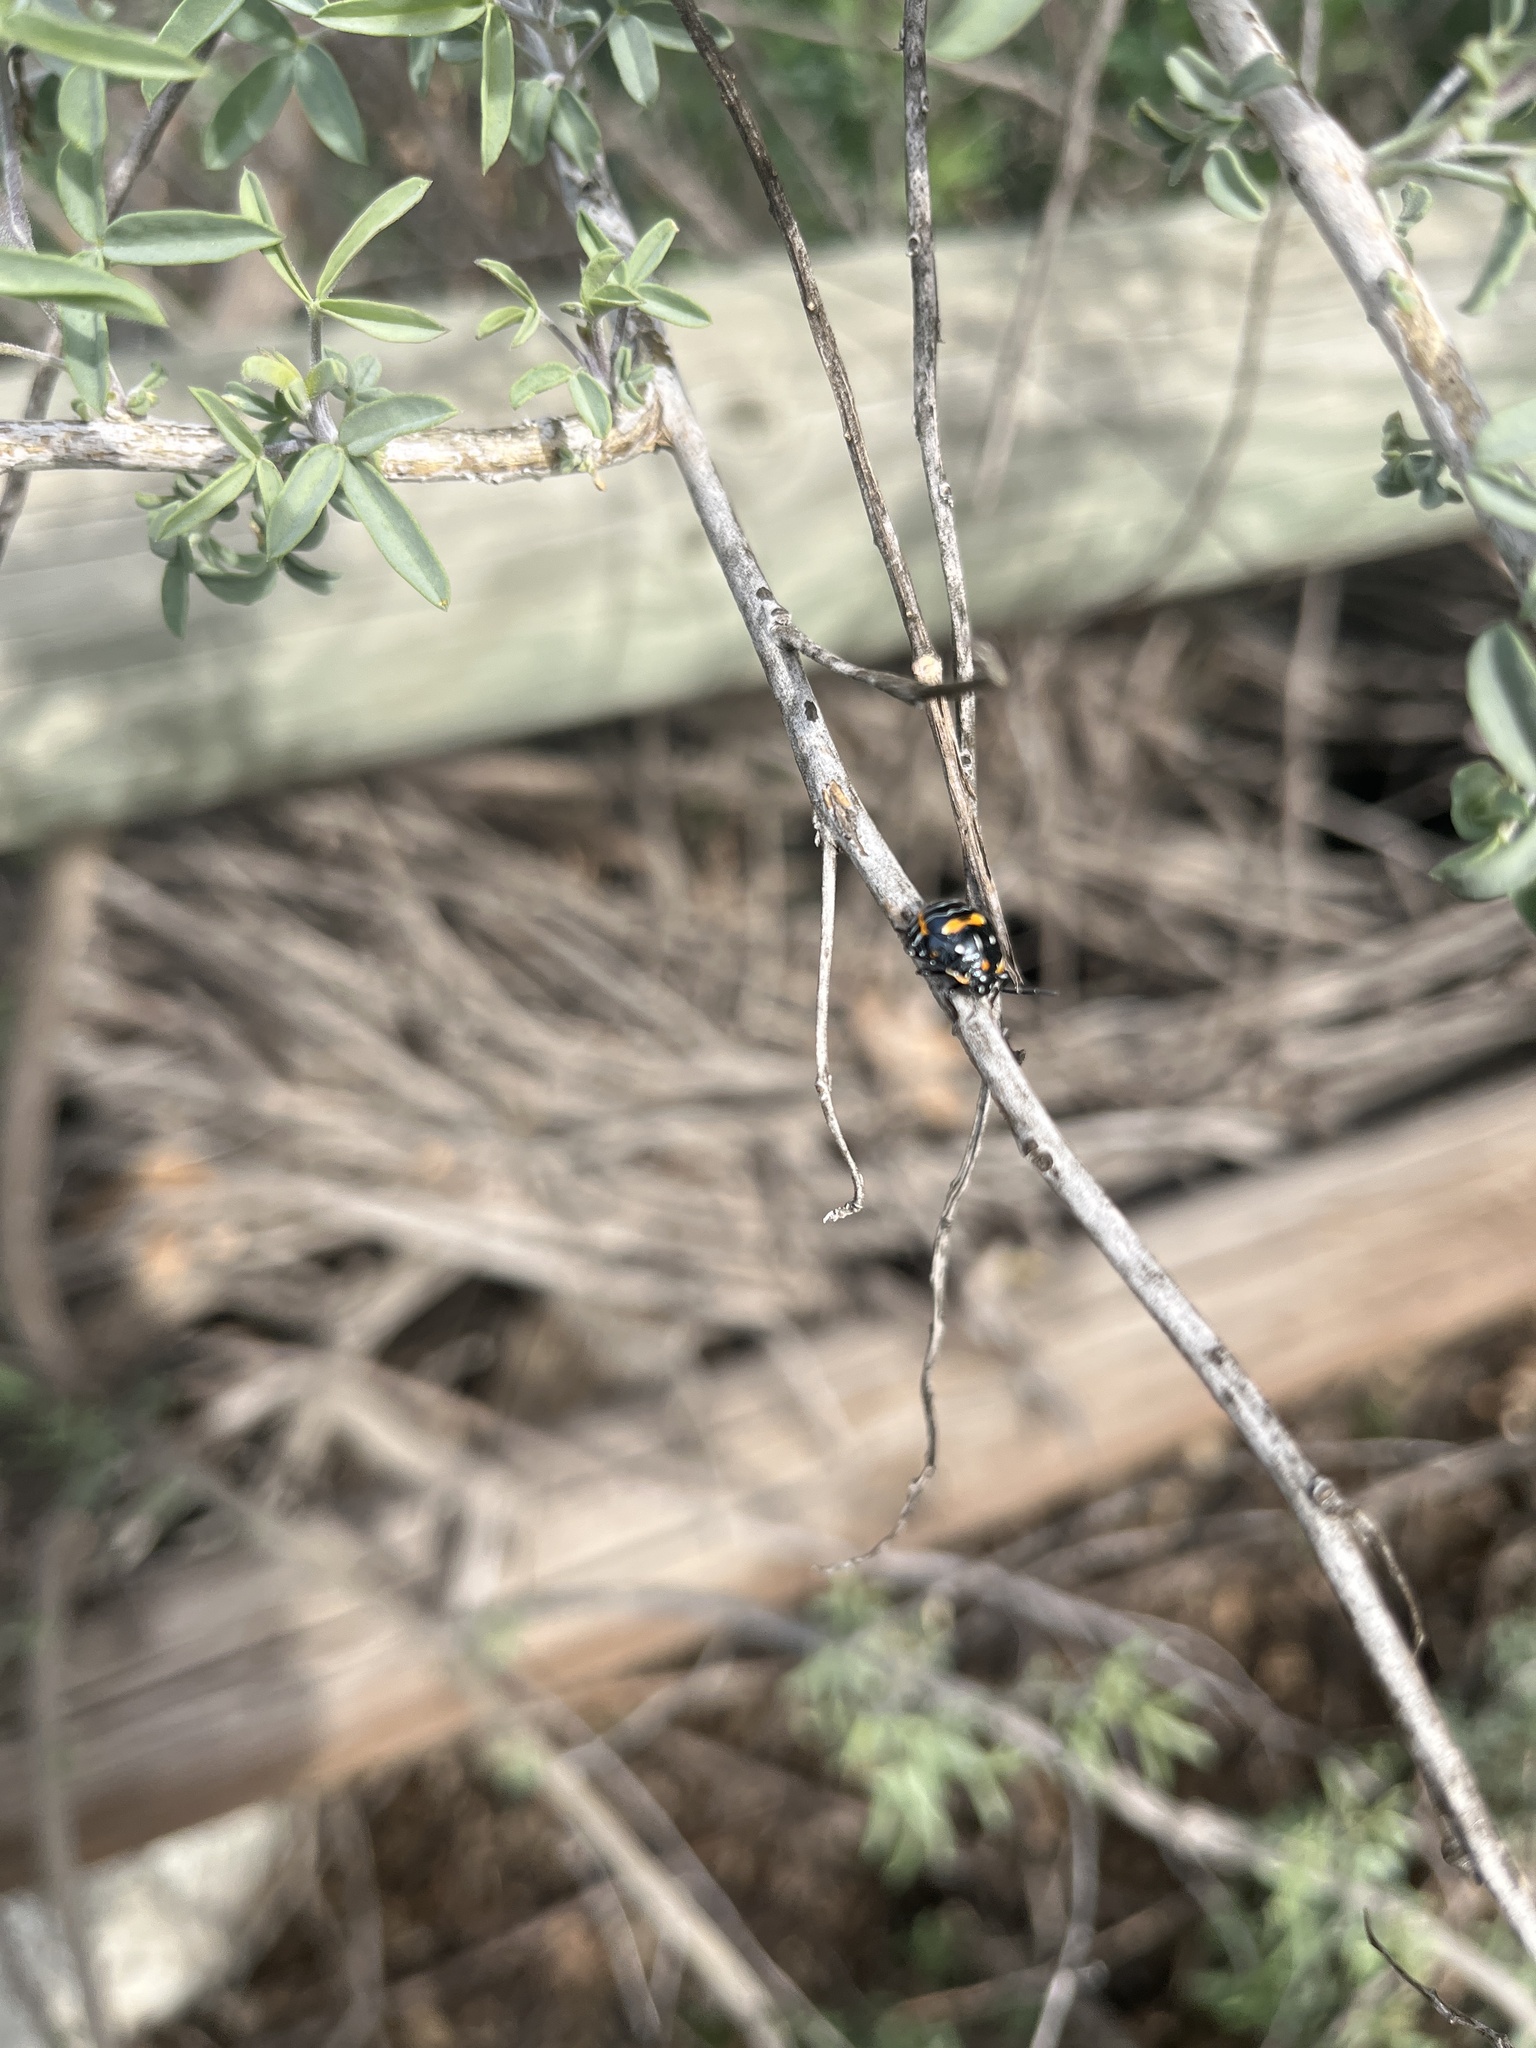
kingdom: Animalia
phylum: Arthropoda
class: Insecta
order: Hemiptera
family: Pentatomidae
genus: Murgantia
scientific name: Murgantia histrionica
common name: Harlequin bug
